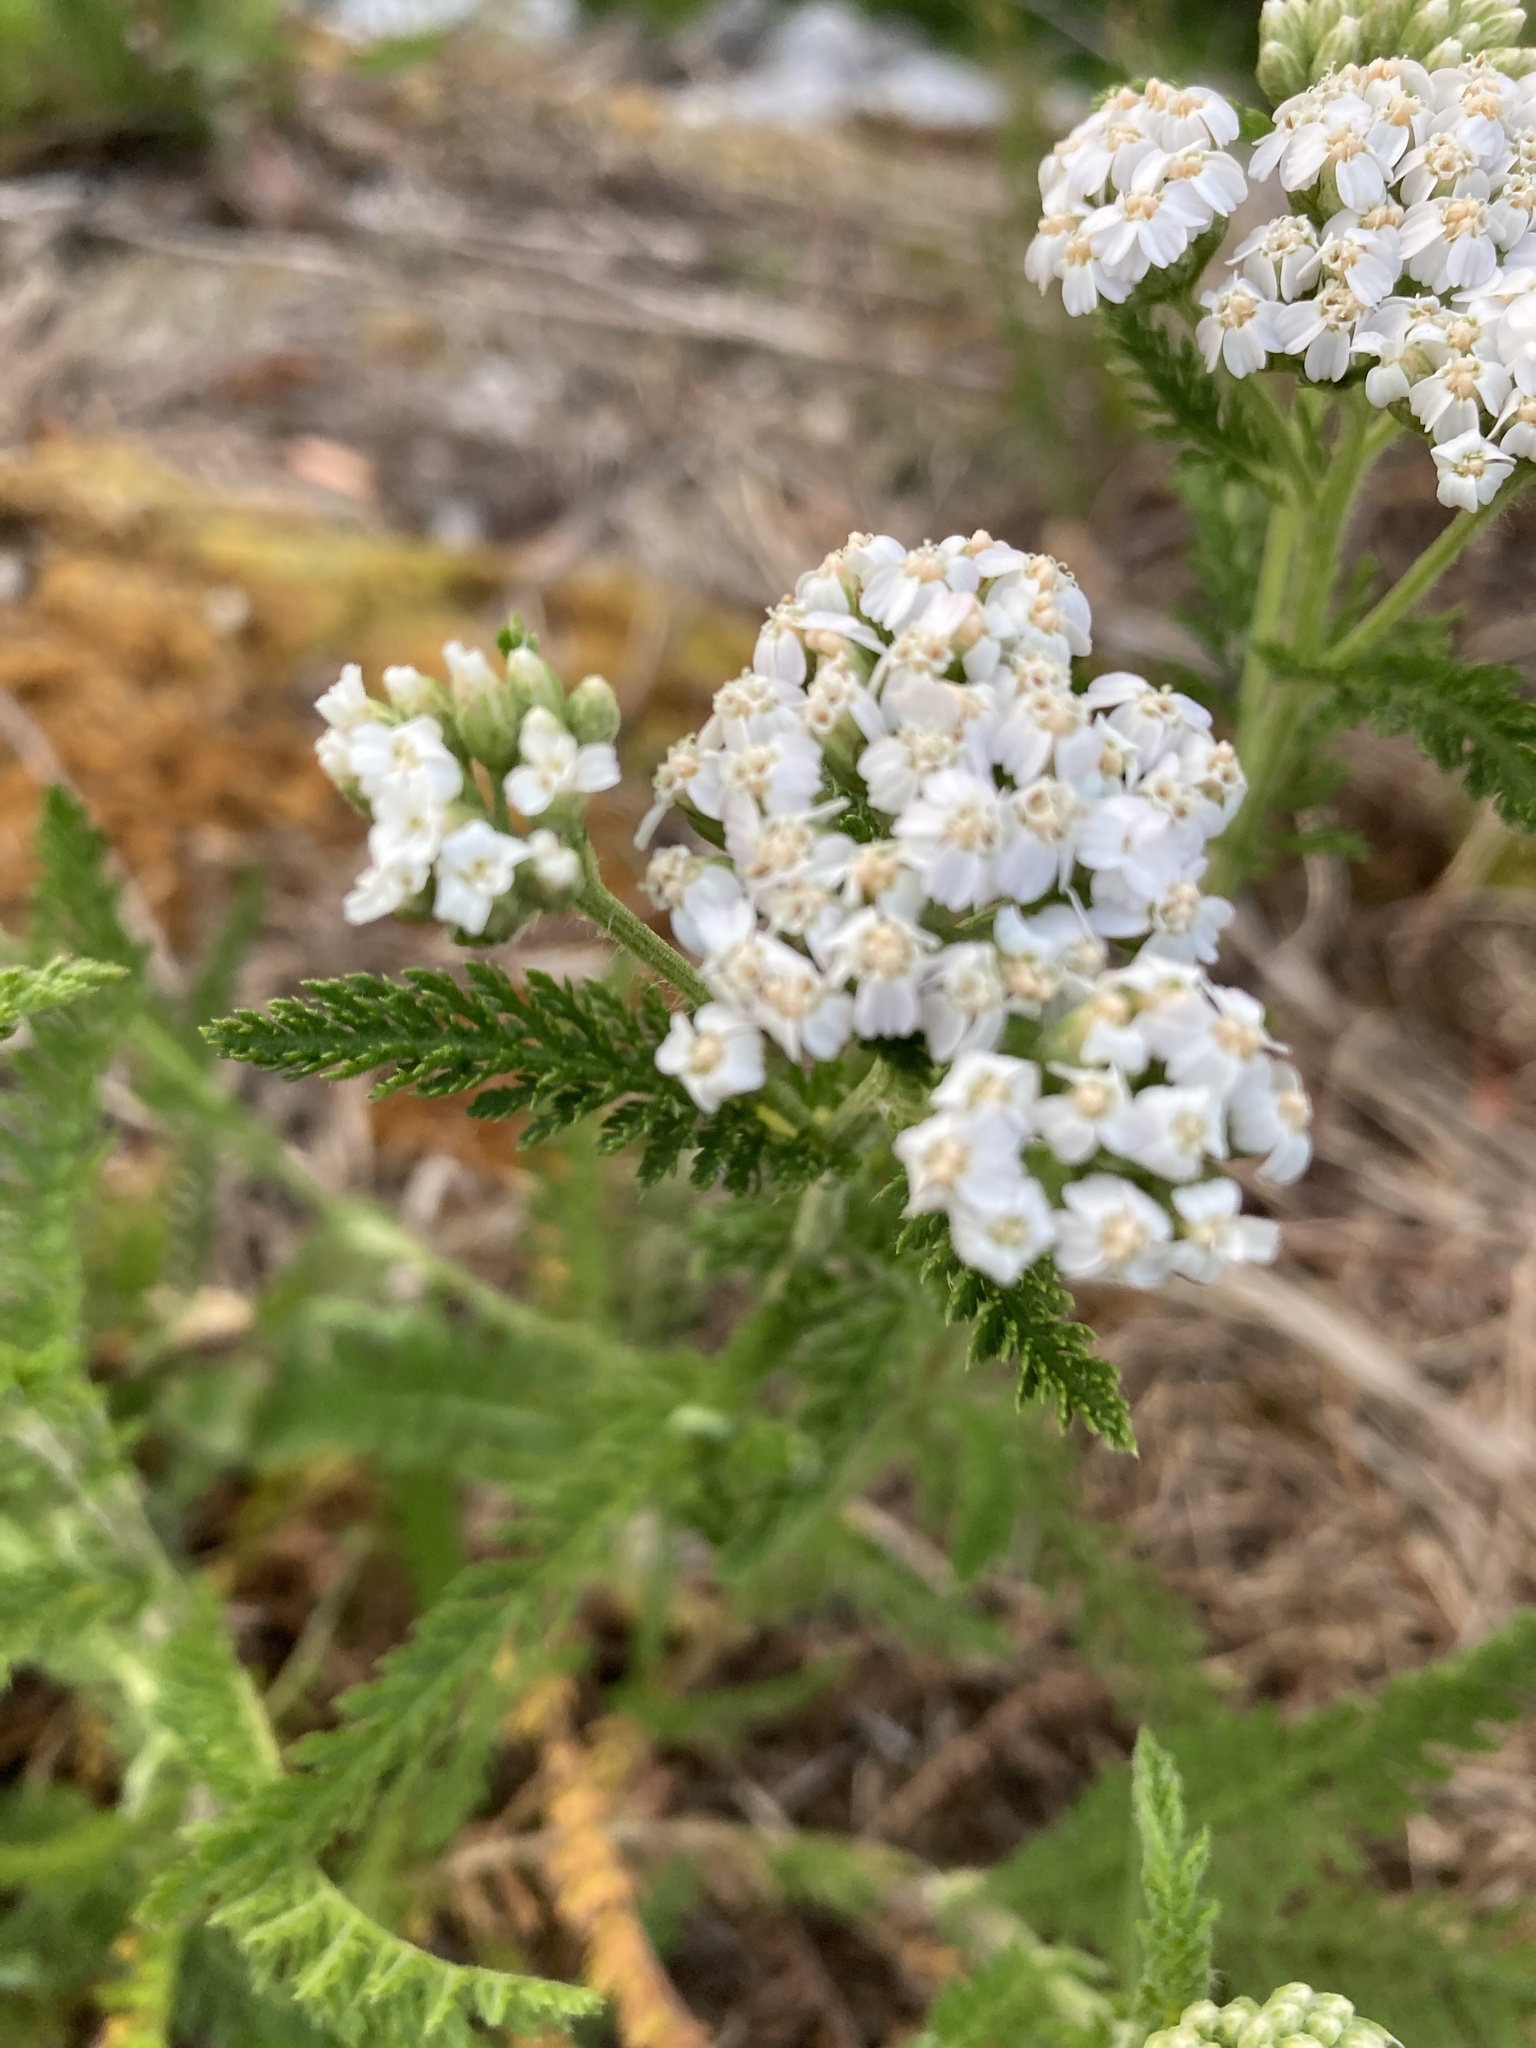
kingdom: Plantae
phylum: Tracheophyta
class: Magnoliopsida
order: Asterales
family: Asteraceae
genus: Achillea
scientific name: Achillea millefolium
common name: Yarrow
